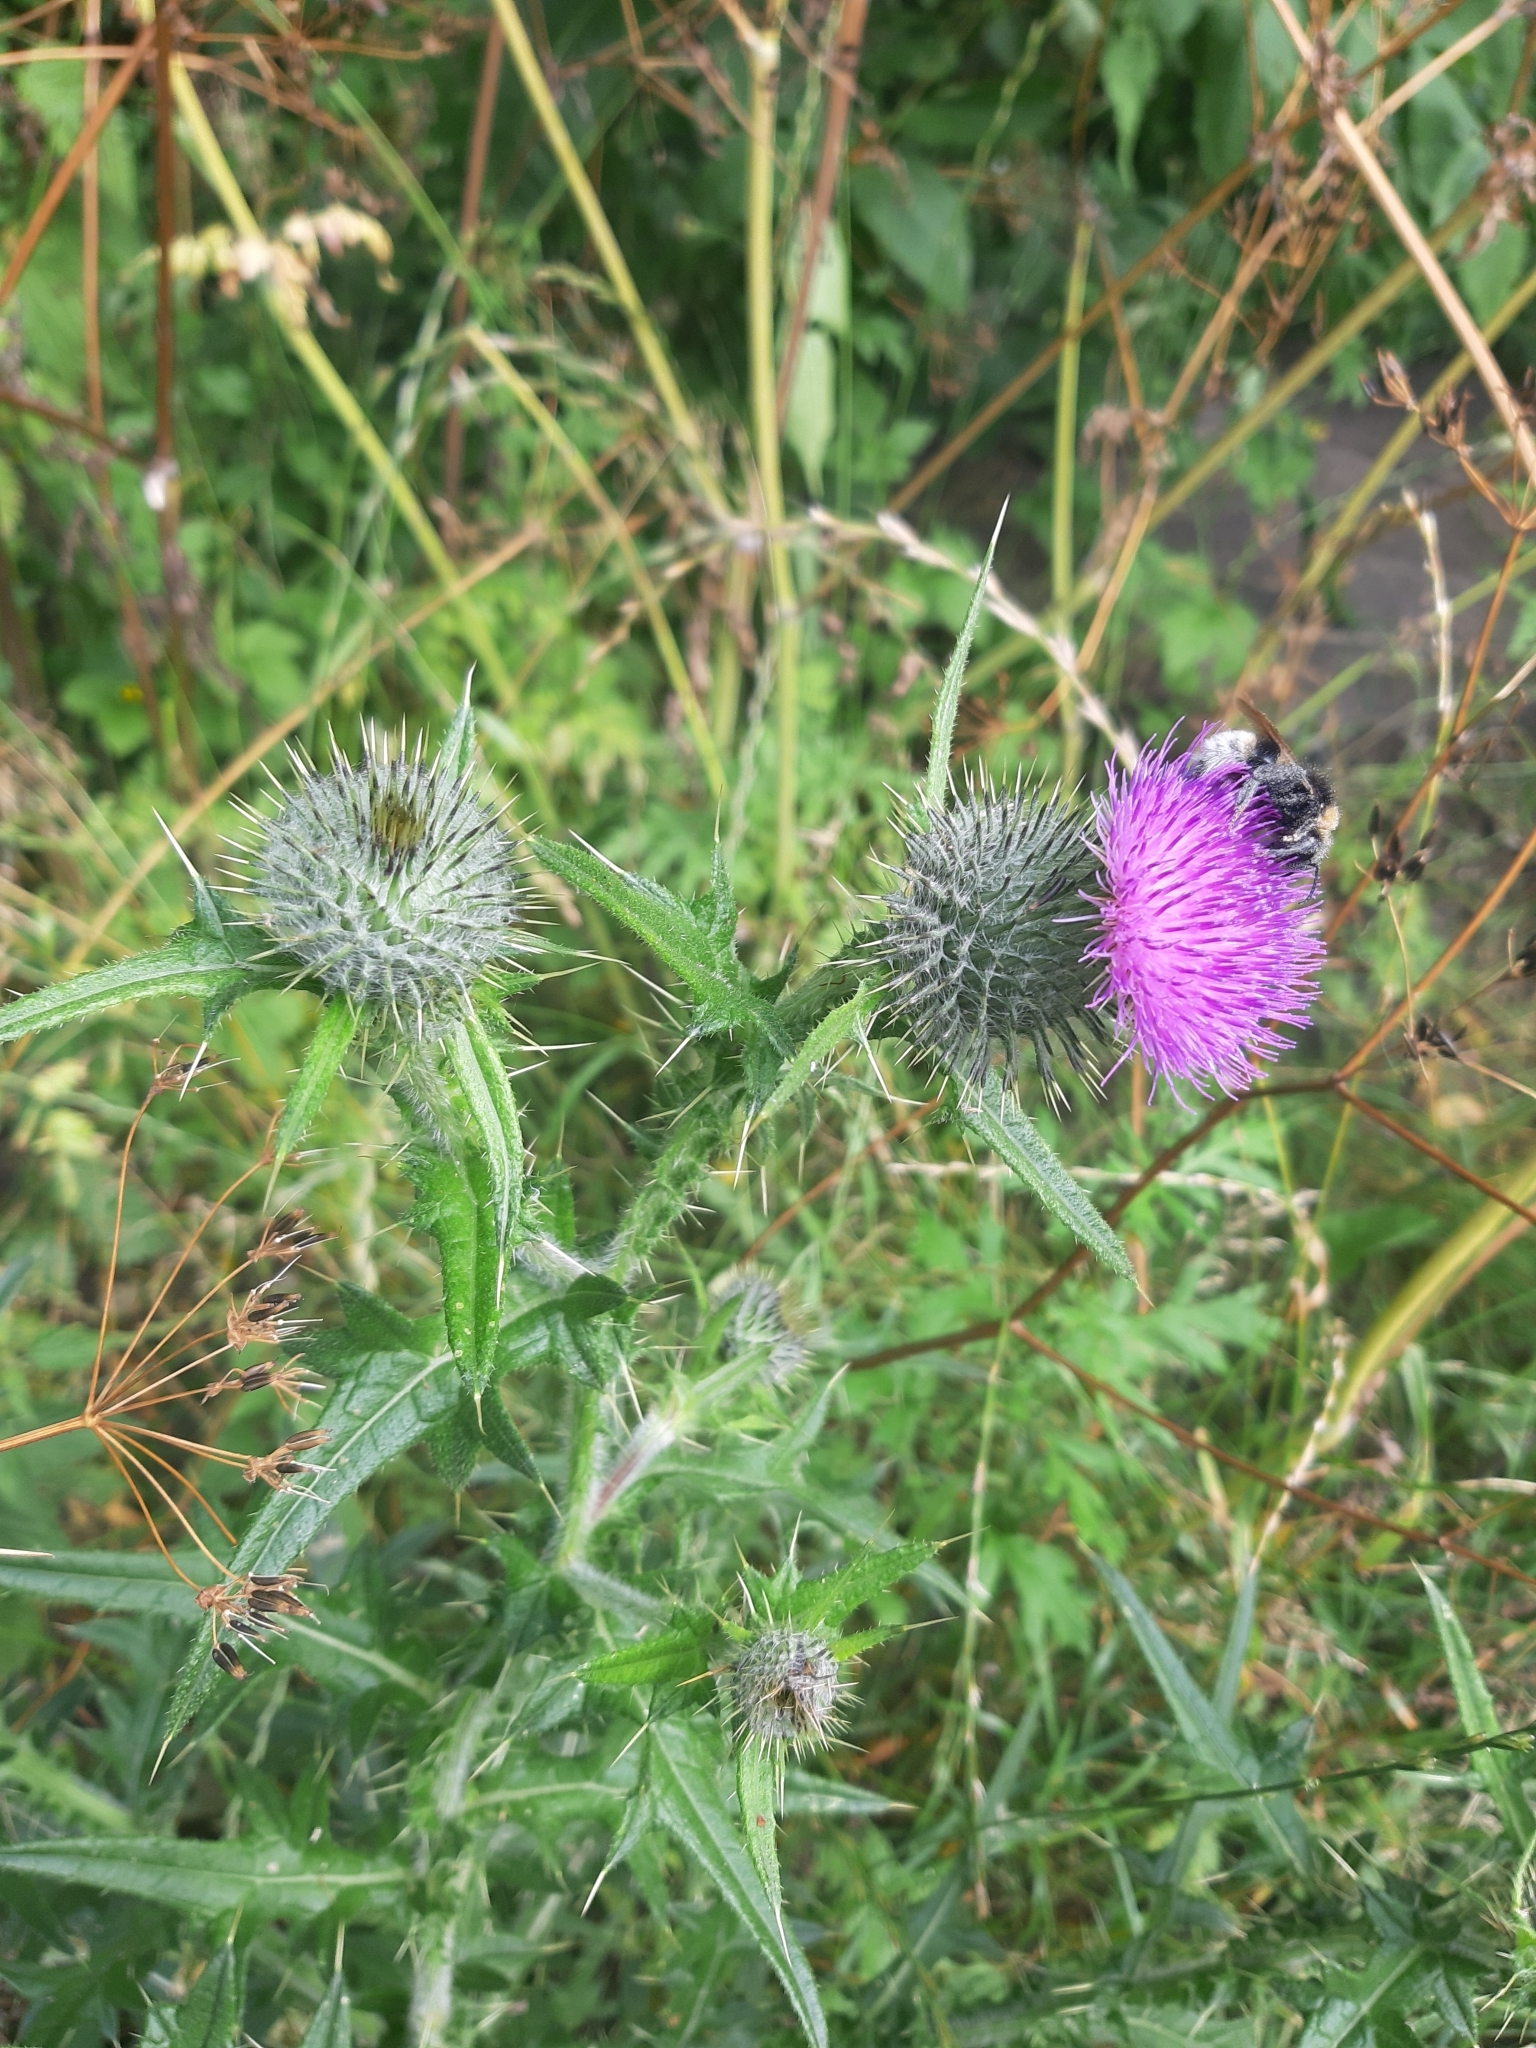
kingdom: Plantae
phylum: Tracheophyta
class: Magnoliopsida
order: Asterales
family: Asteraceae
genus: Cirsium
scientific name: Cirsium vulgare
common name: Bull thistle
